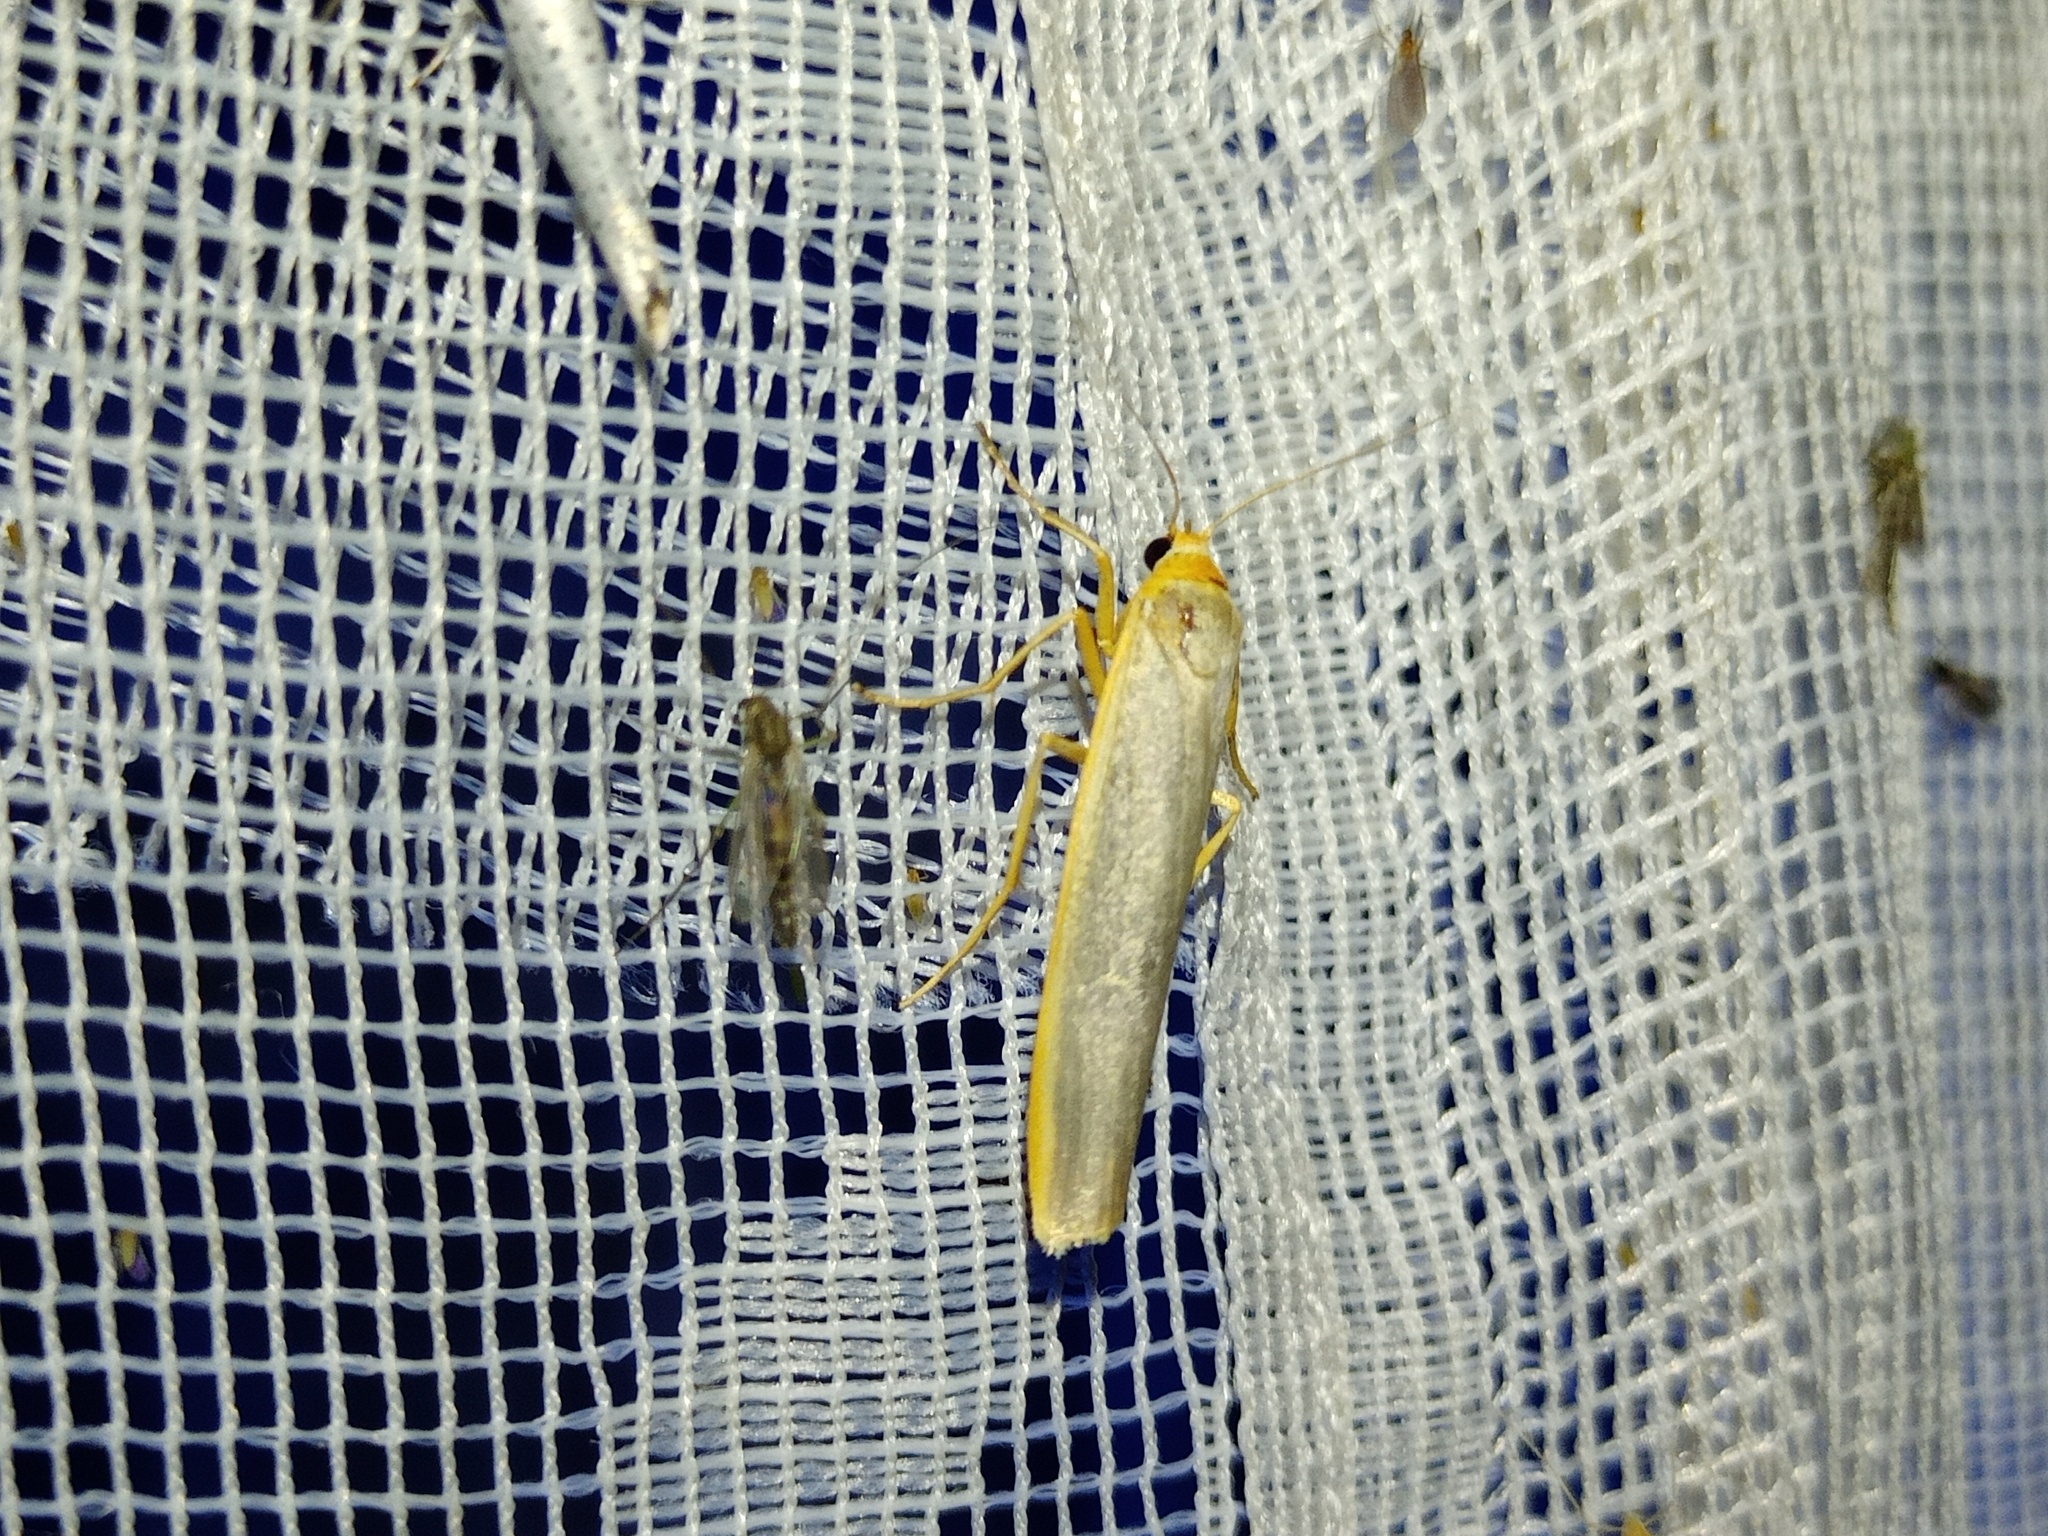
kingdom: Animalia
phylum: Arthropoda
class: Insecta
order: Lepidoptera
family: Erebidae
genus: Manulea
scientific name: Manulea complana
